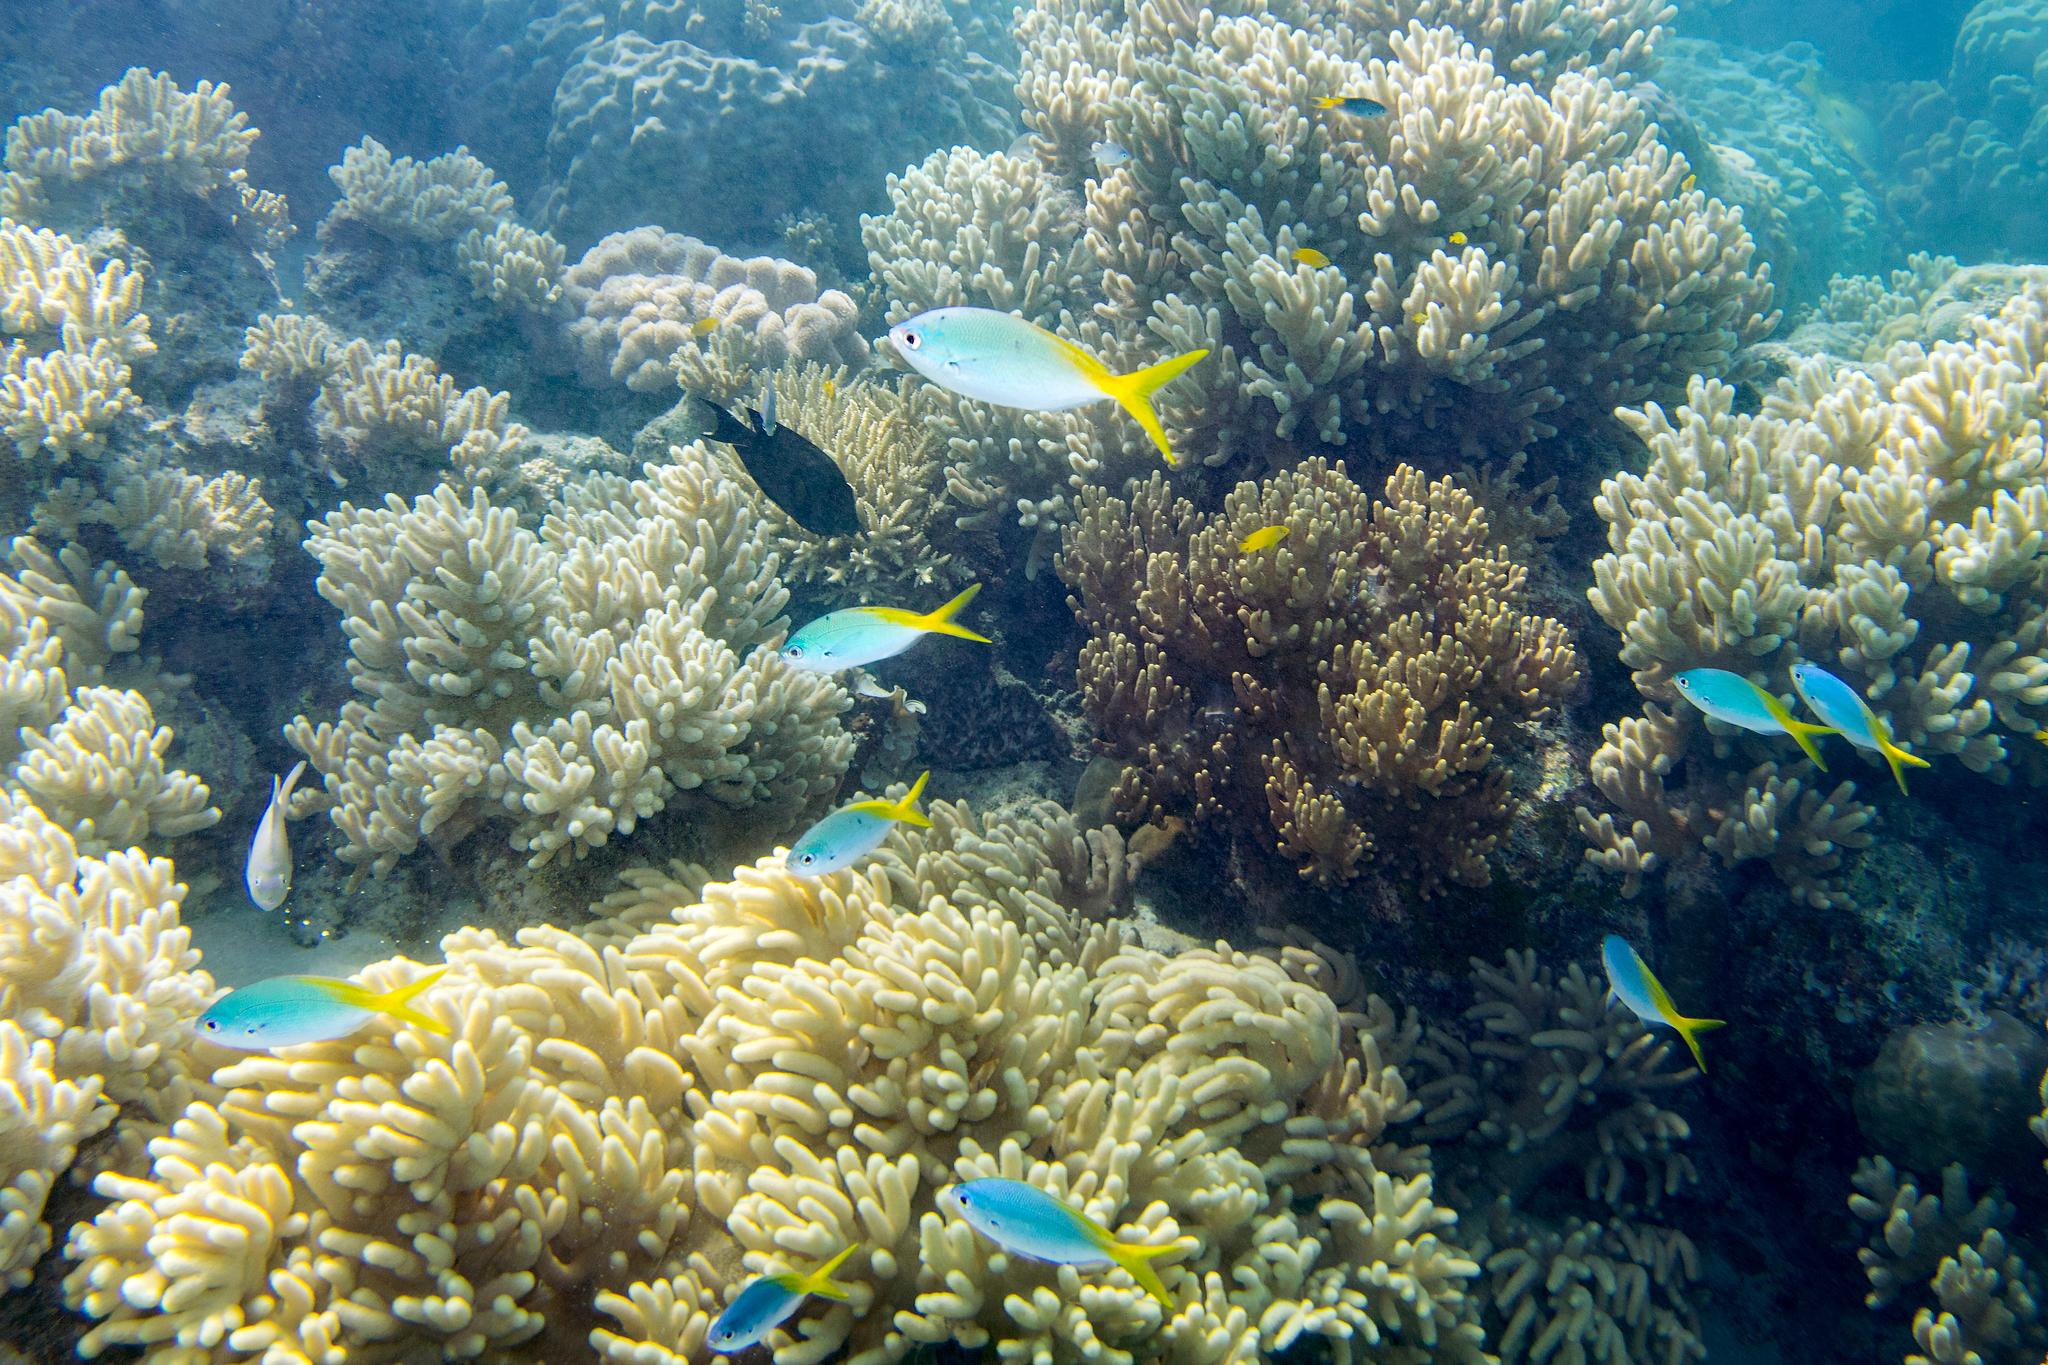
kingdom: Animalia
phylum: Chordata
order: Perciformes
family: Caesionidae
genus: Caesio
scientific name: Caesio teres
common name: Yellow and blueback fusilier
